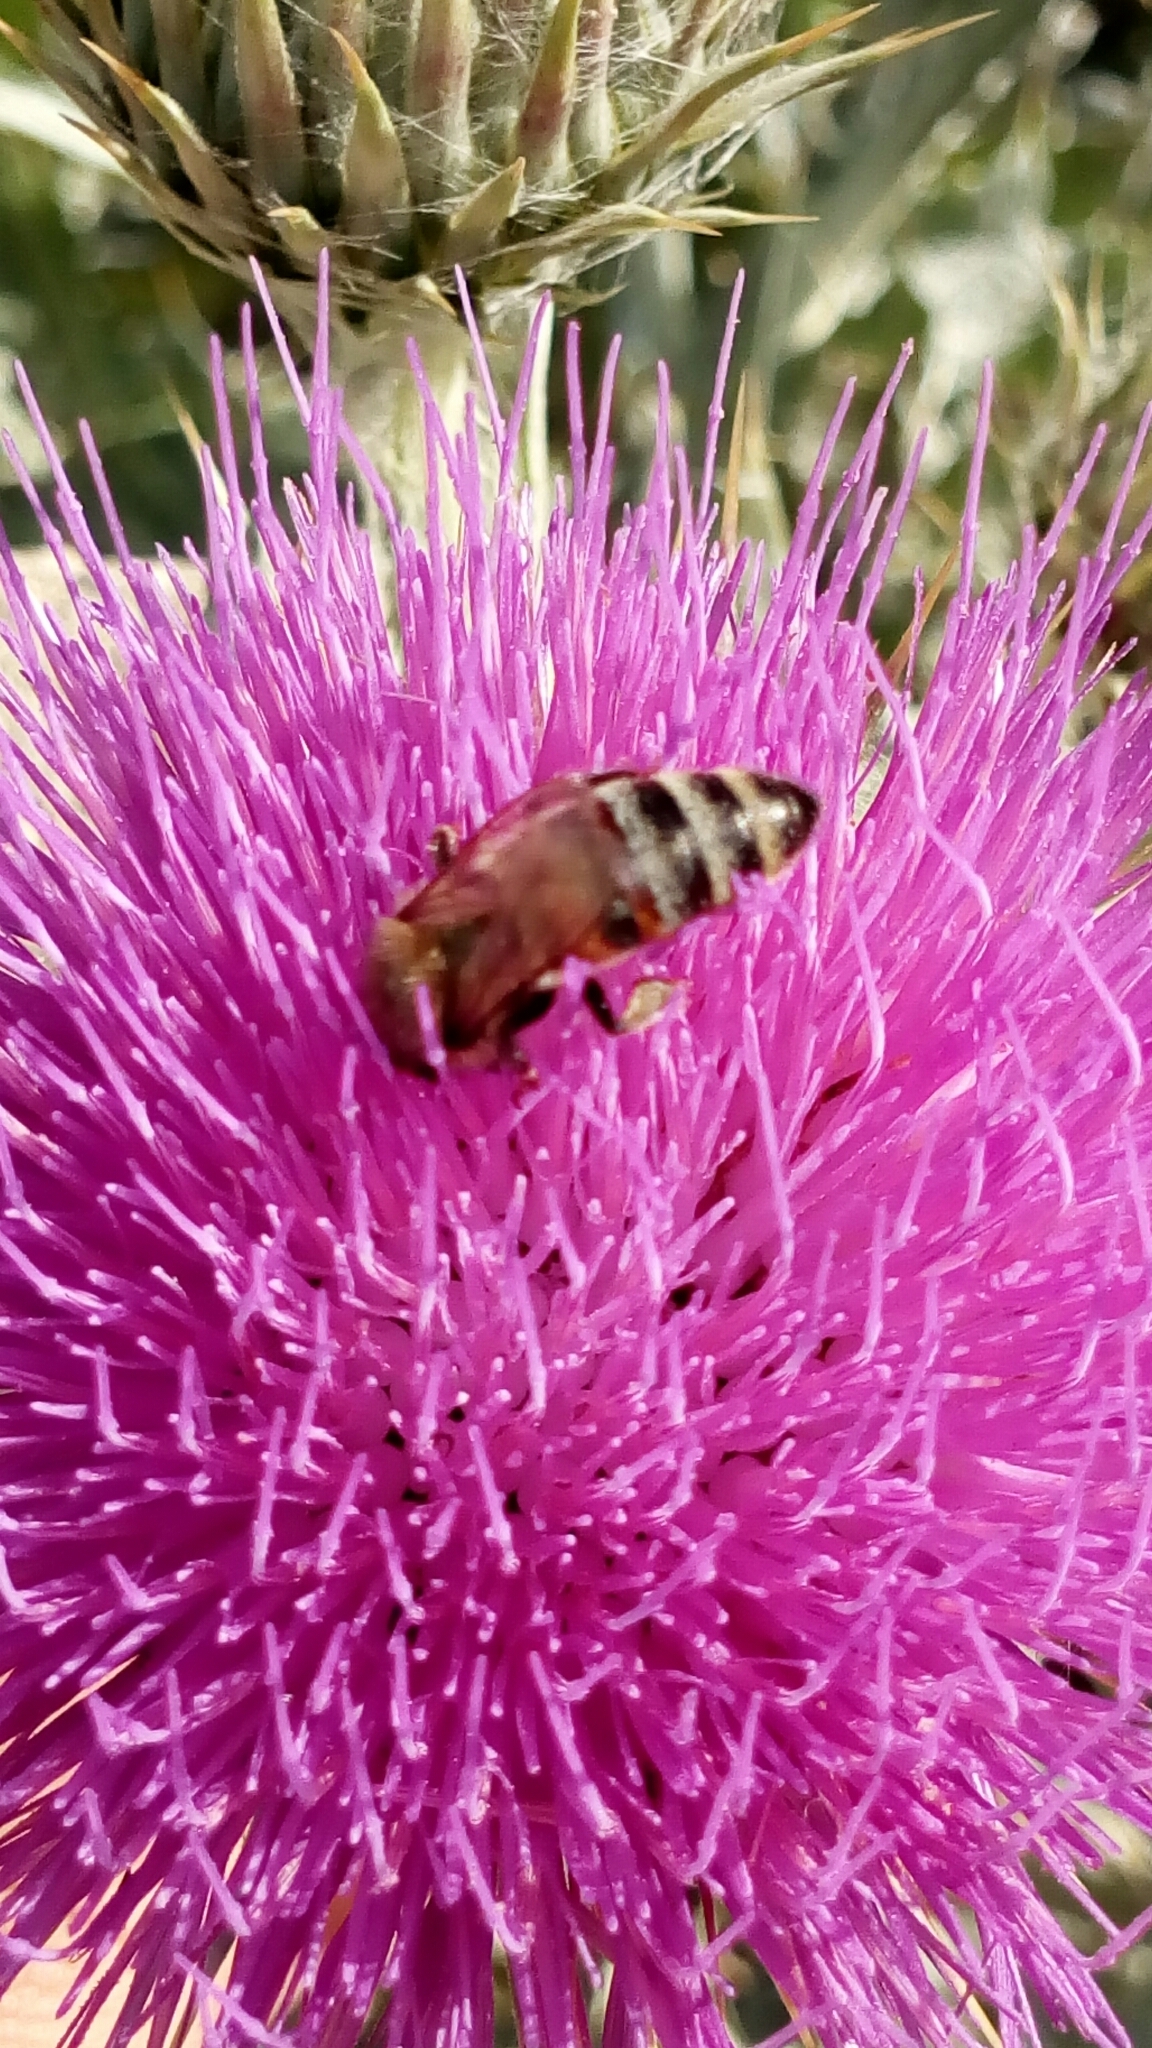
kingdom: Animalia
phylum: Arthropoda
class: Insecta
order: Hymenoptera
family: Apidae
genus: Apis
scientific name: Apis mellifera
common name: Honey bee
